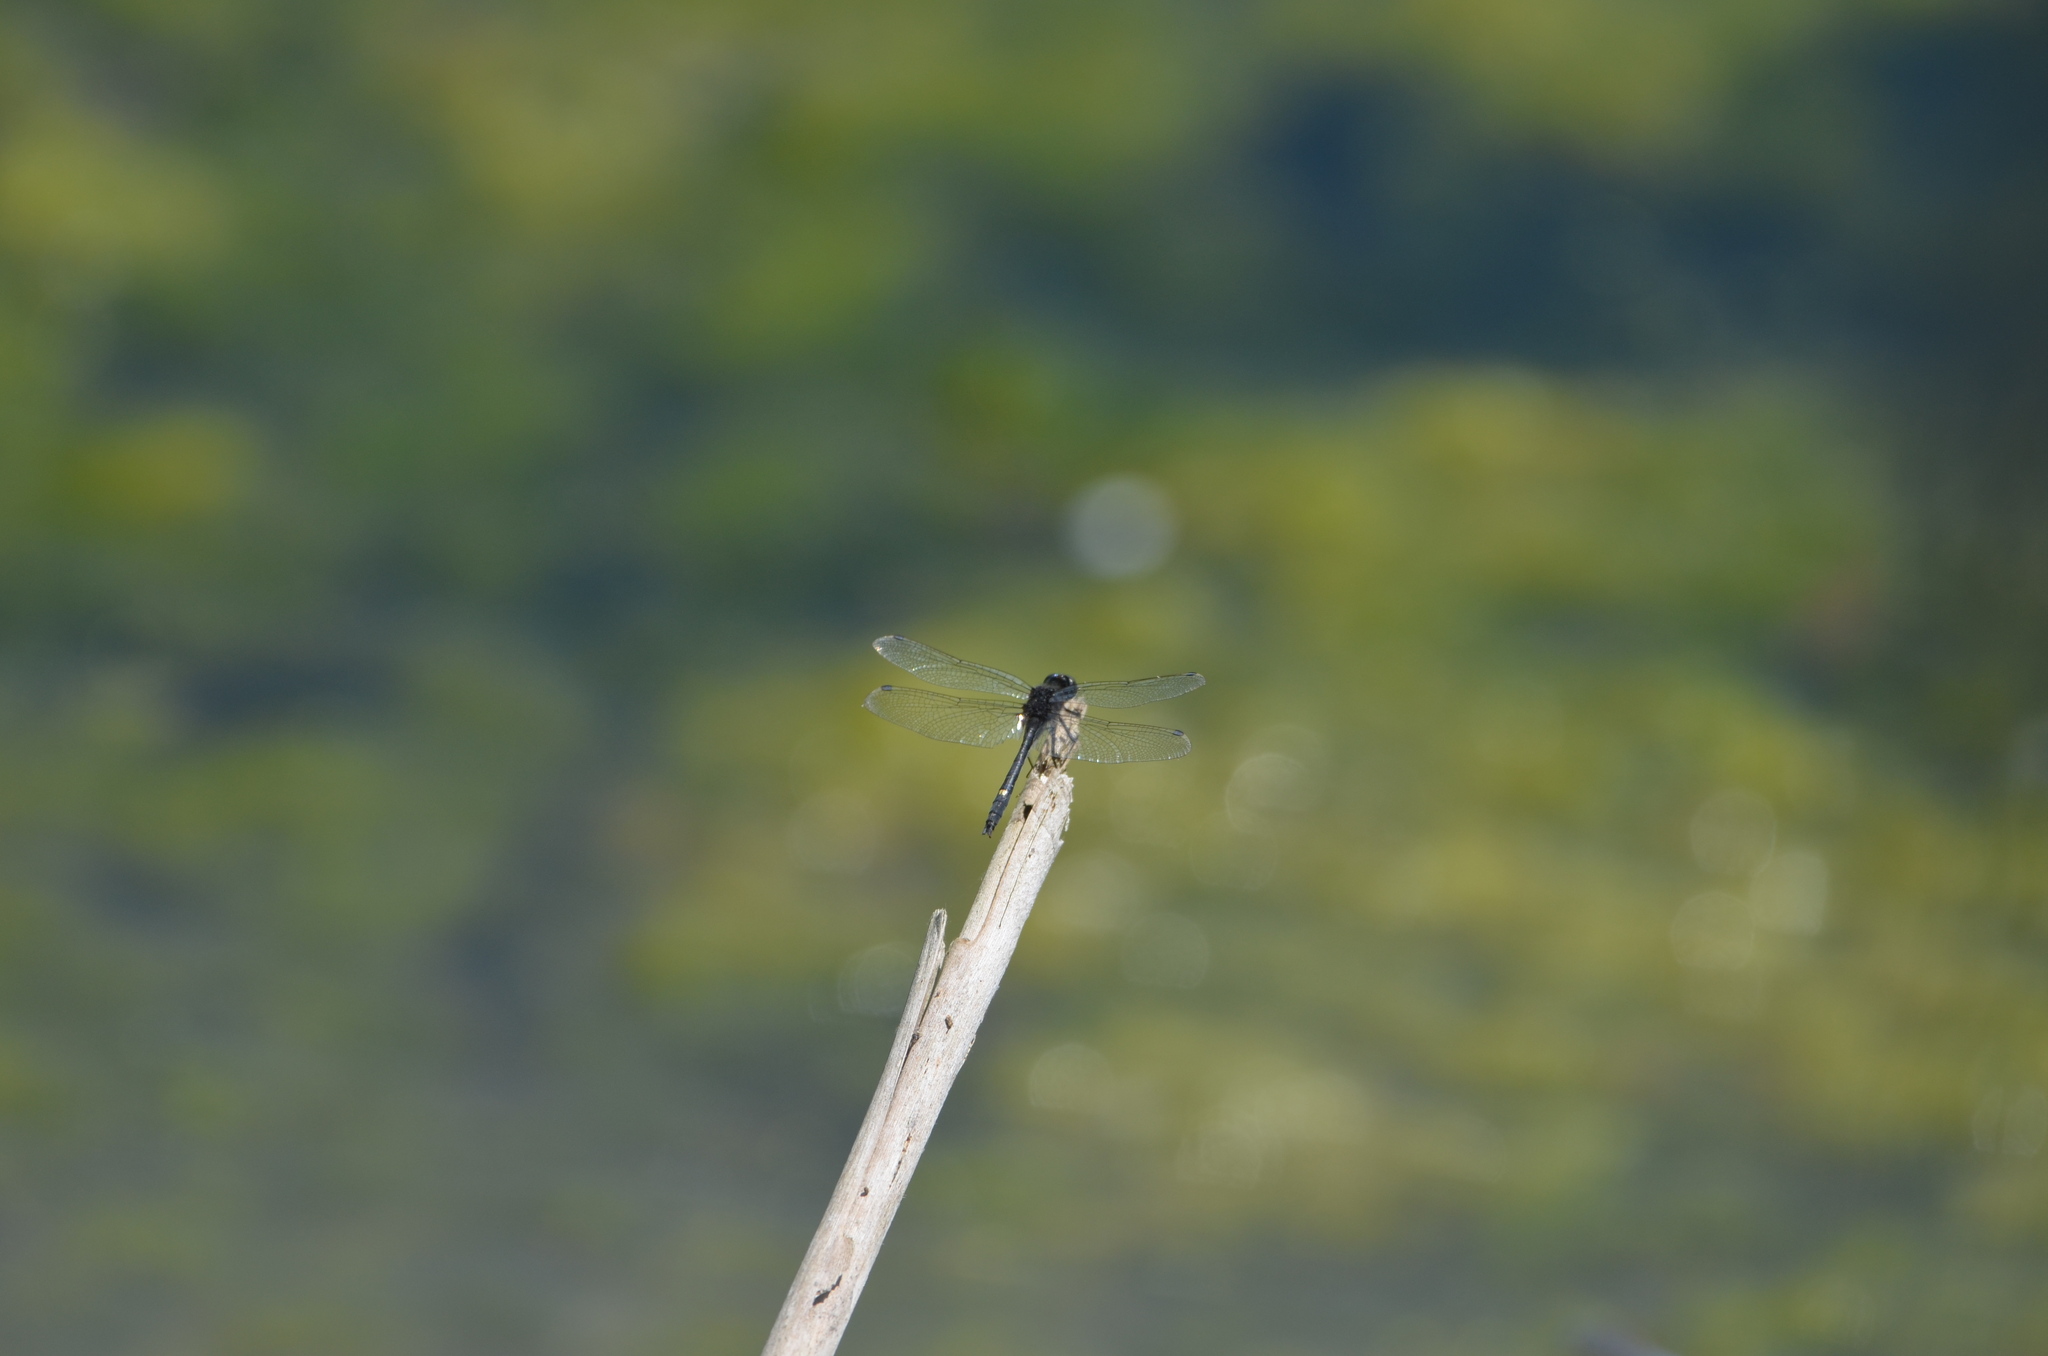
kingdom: Animalia
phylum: Arthropoda
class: Insecta
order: Odonata
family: Libellulidae
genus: Leucorrhinia
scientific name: Leucorrhinia intacta
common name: Dot-tailed whiteface
